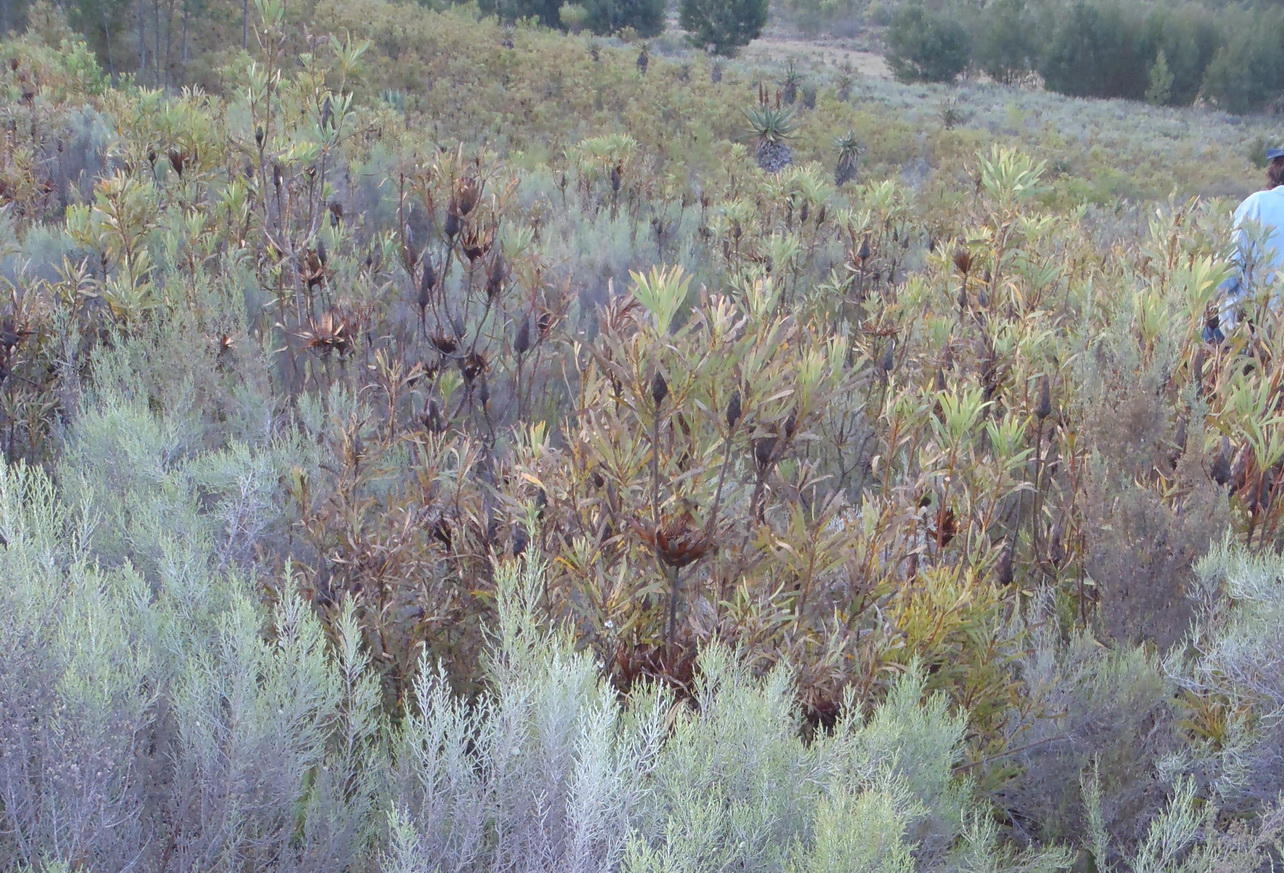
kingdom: Plantae
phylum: Tracheophyta
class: Magnoliopsida
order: Proteales
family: Proteaceae
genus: Protea
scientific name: Protea repens
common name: Sugarbush
